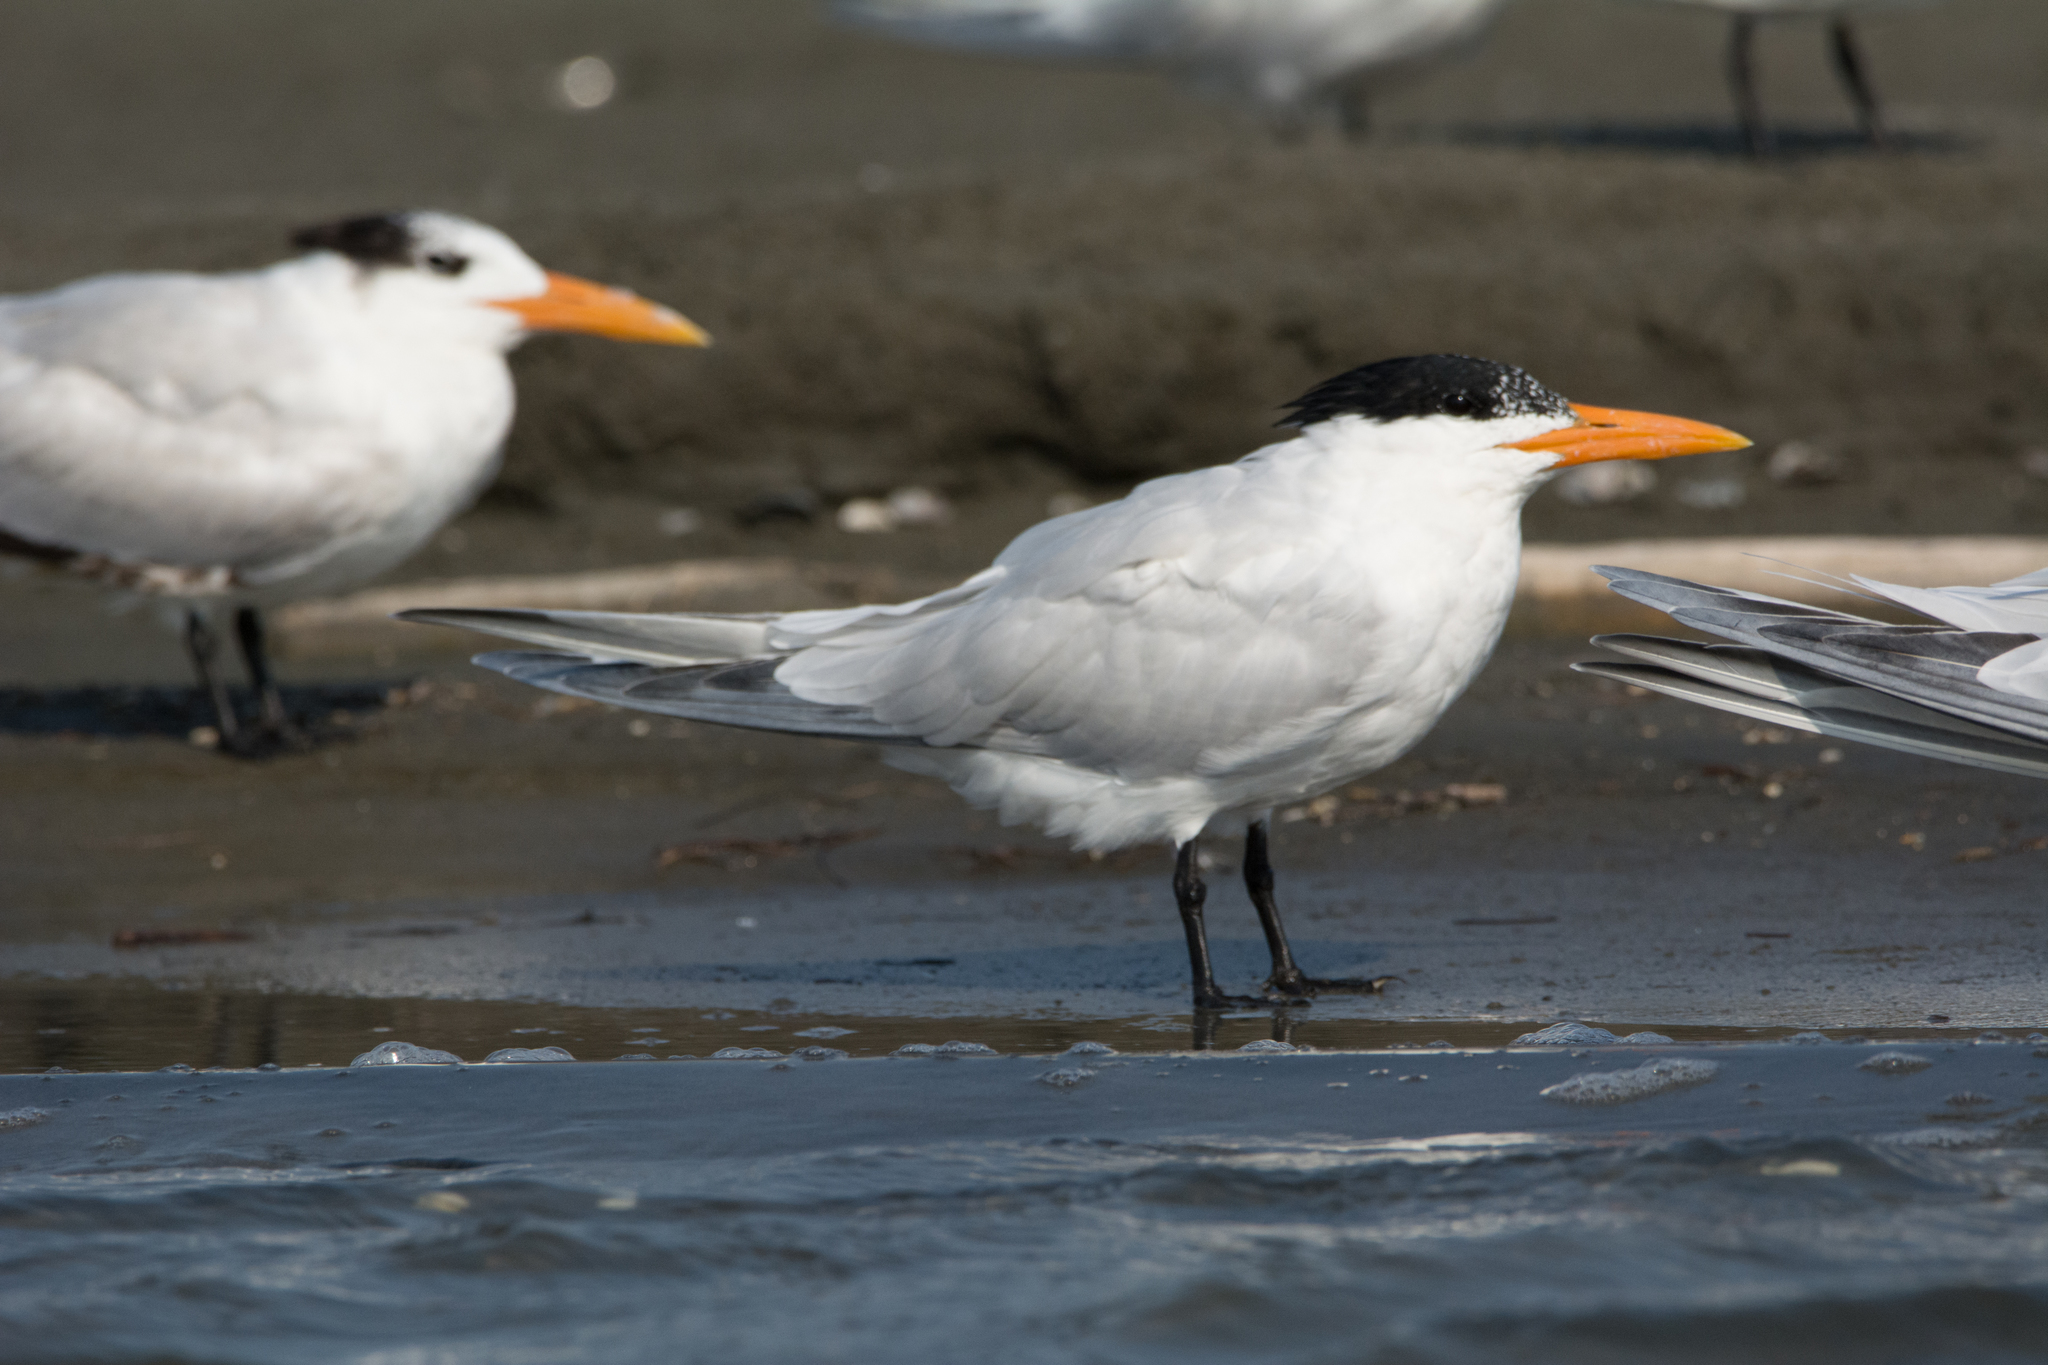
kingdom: Animalia
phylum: Chordata
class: Aves
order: Charadriiformes
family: Laridae
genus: Thalasseus
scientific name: Thalasseus maximus
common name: Royal tern
